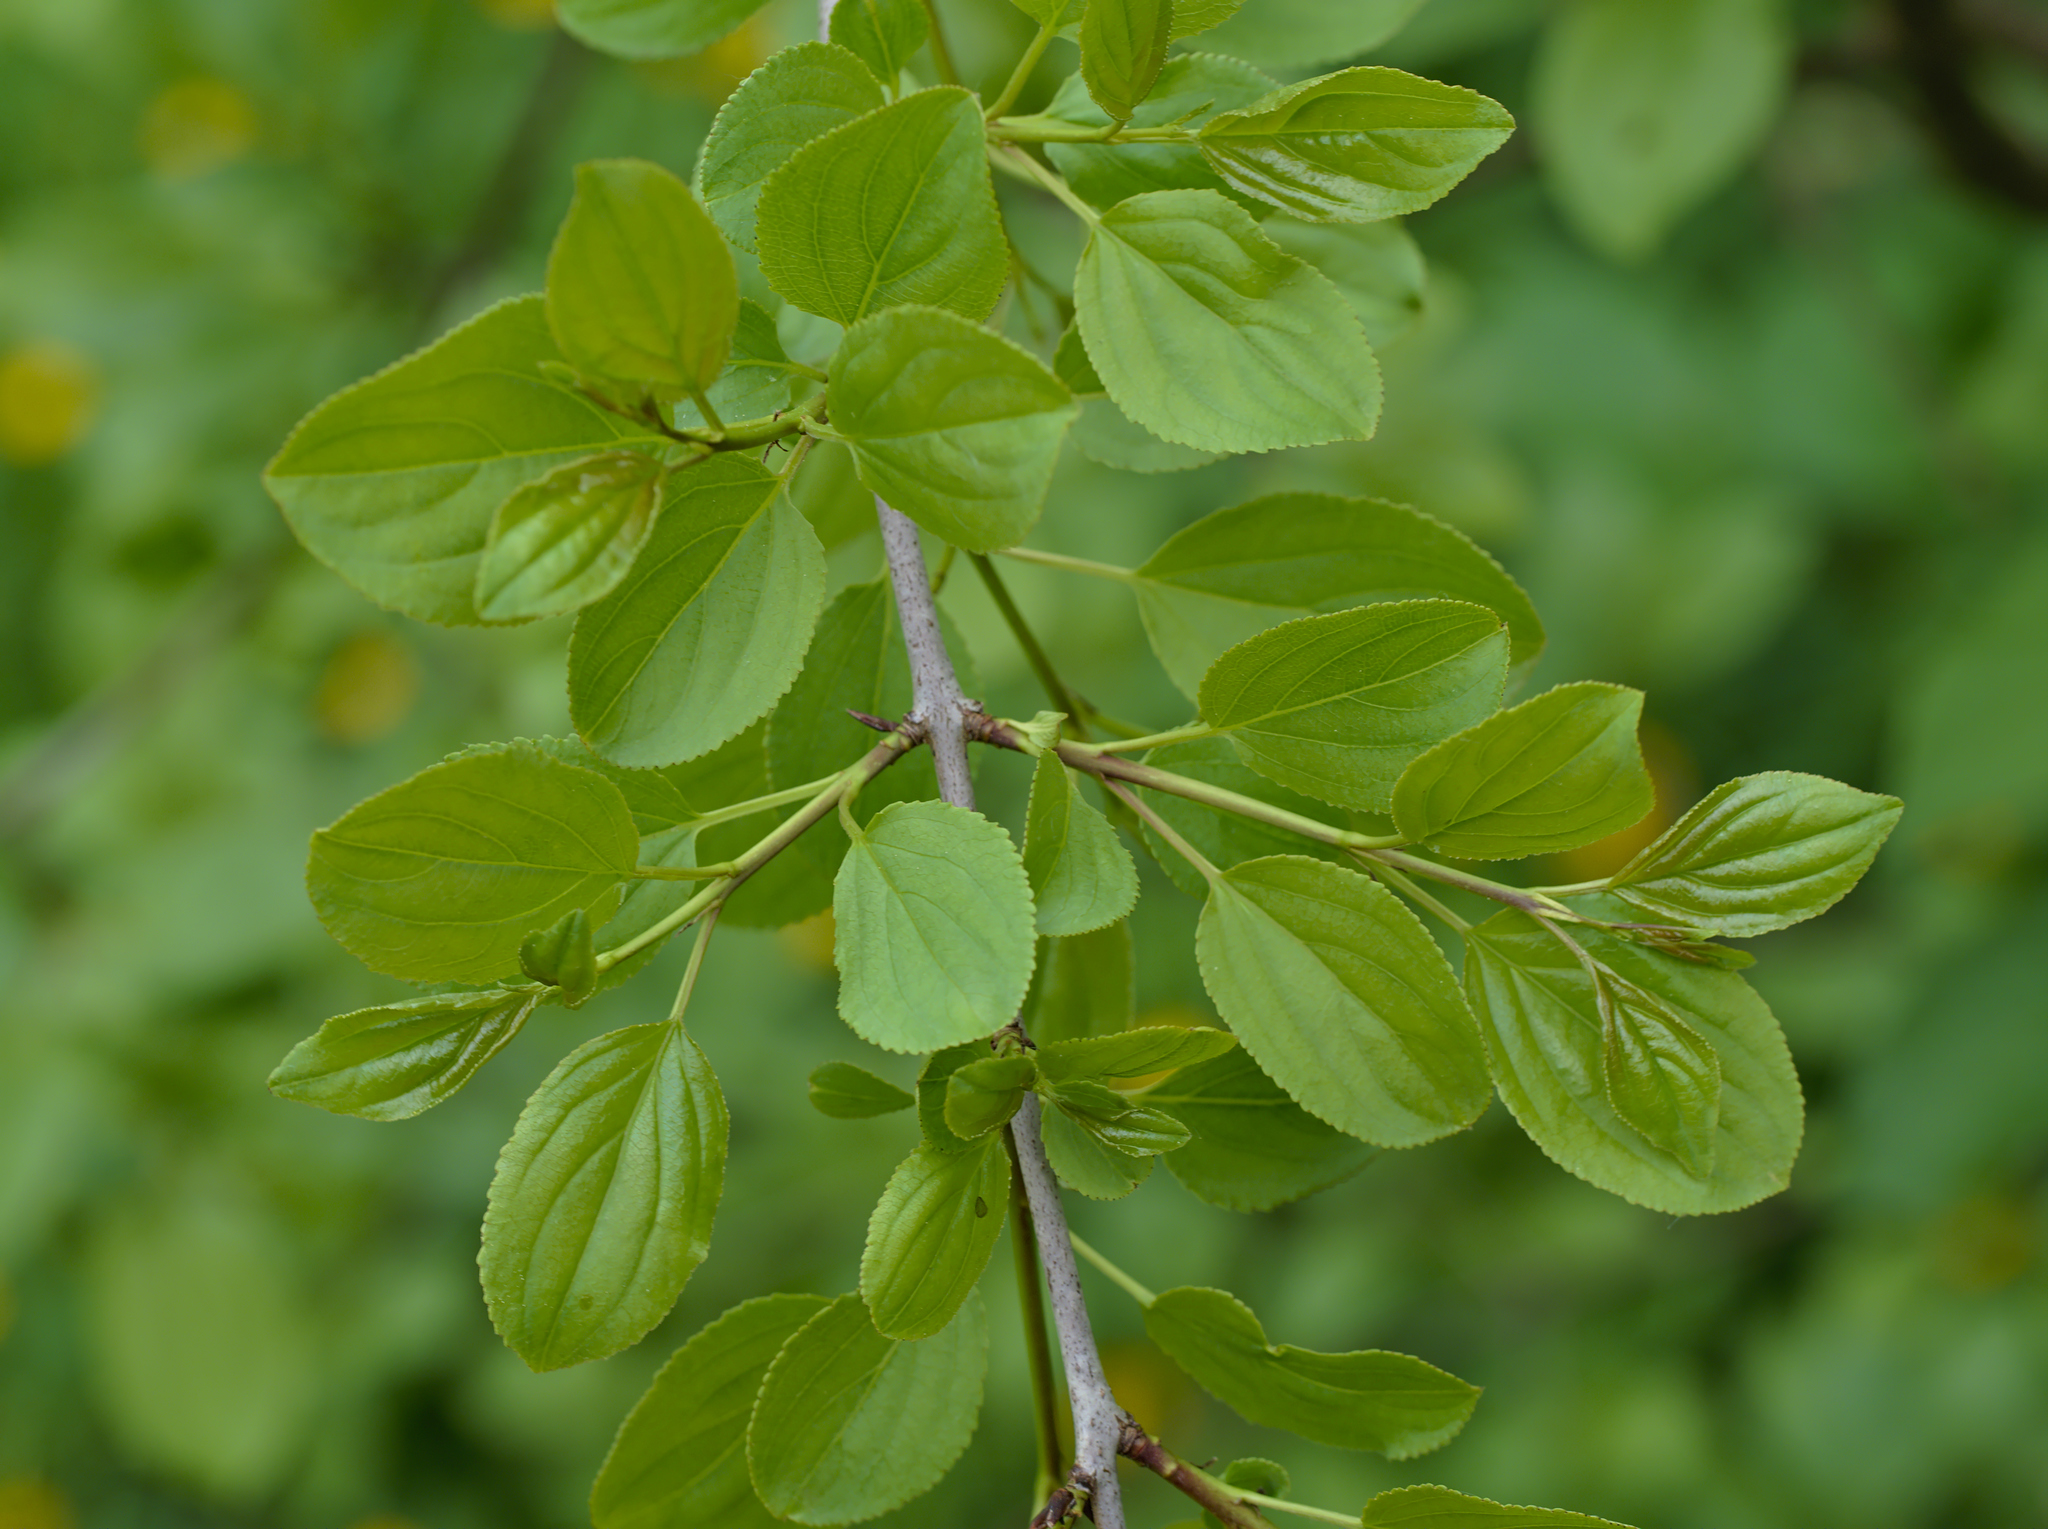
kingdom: Plantae
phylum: Tracheophyta
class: Magnoliopsida
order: Rosales
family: Rhamnaceae
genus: Rhamnus
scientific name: Rhamnus cathartica
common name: Common buckthorn
